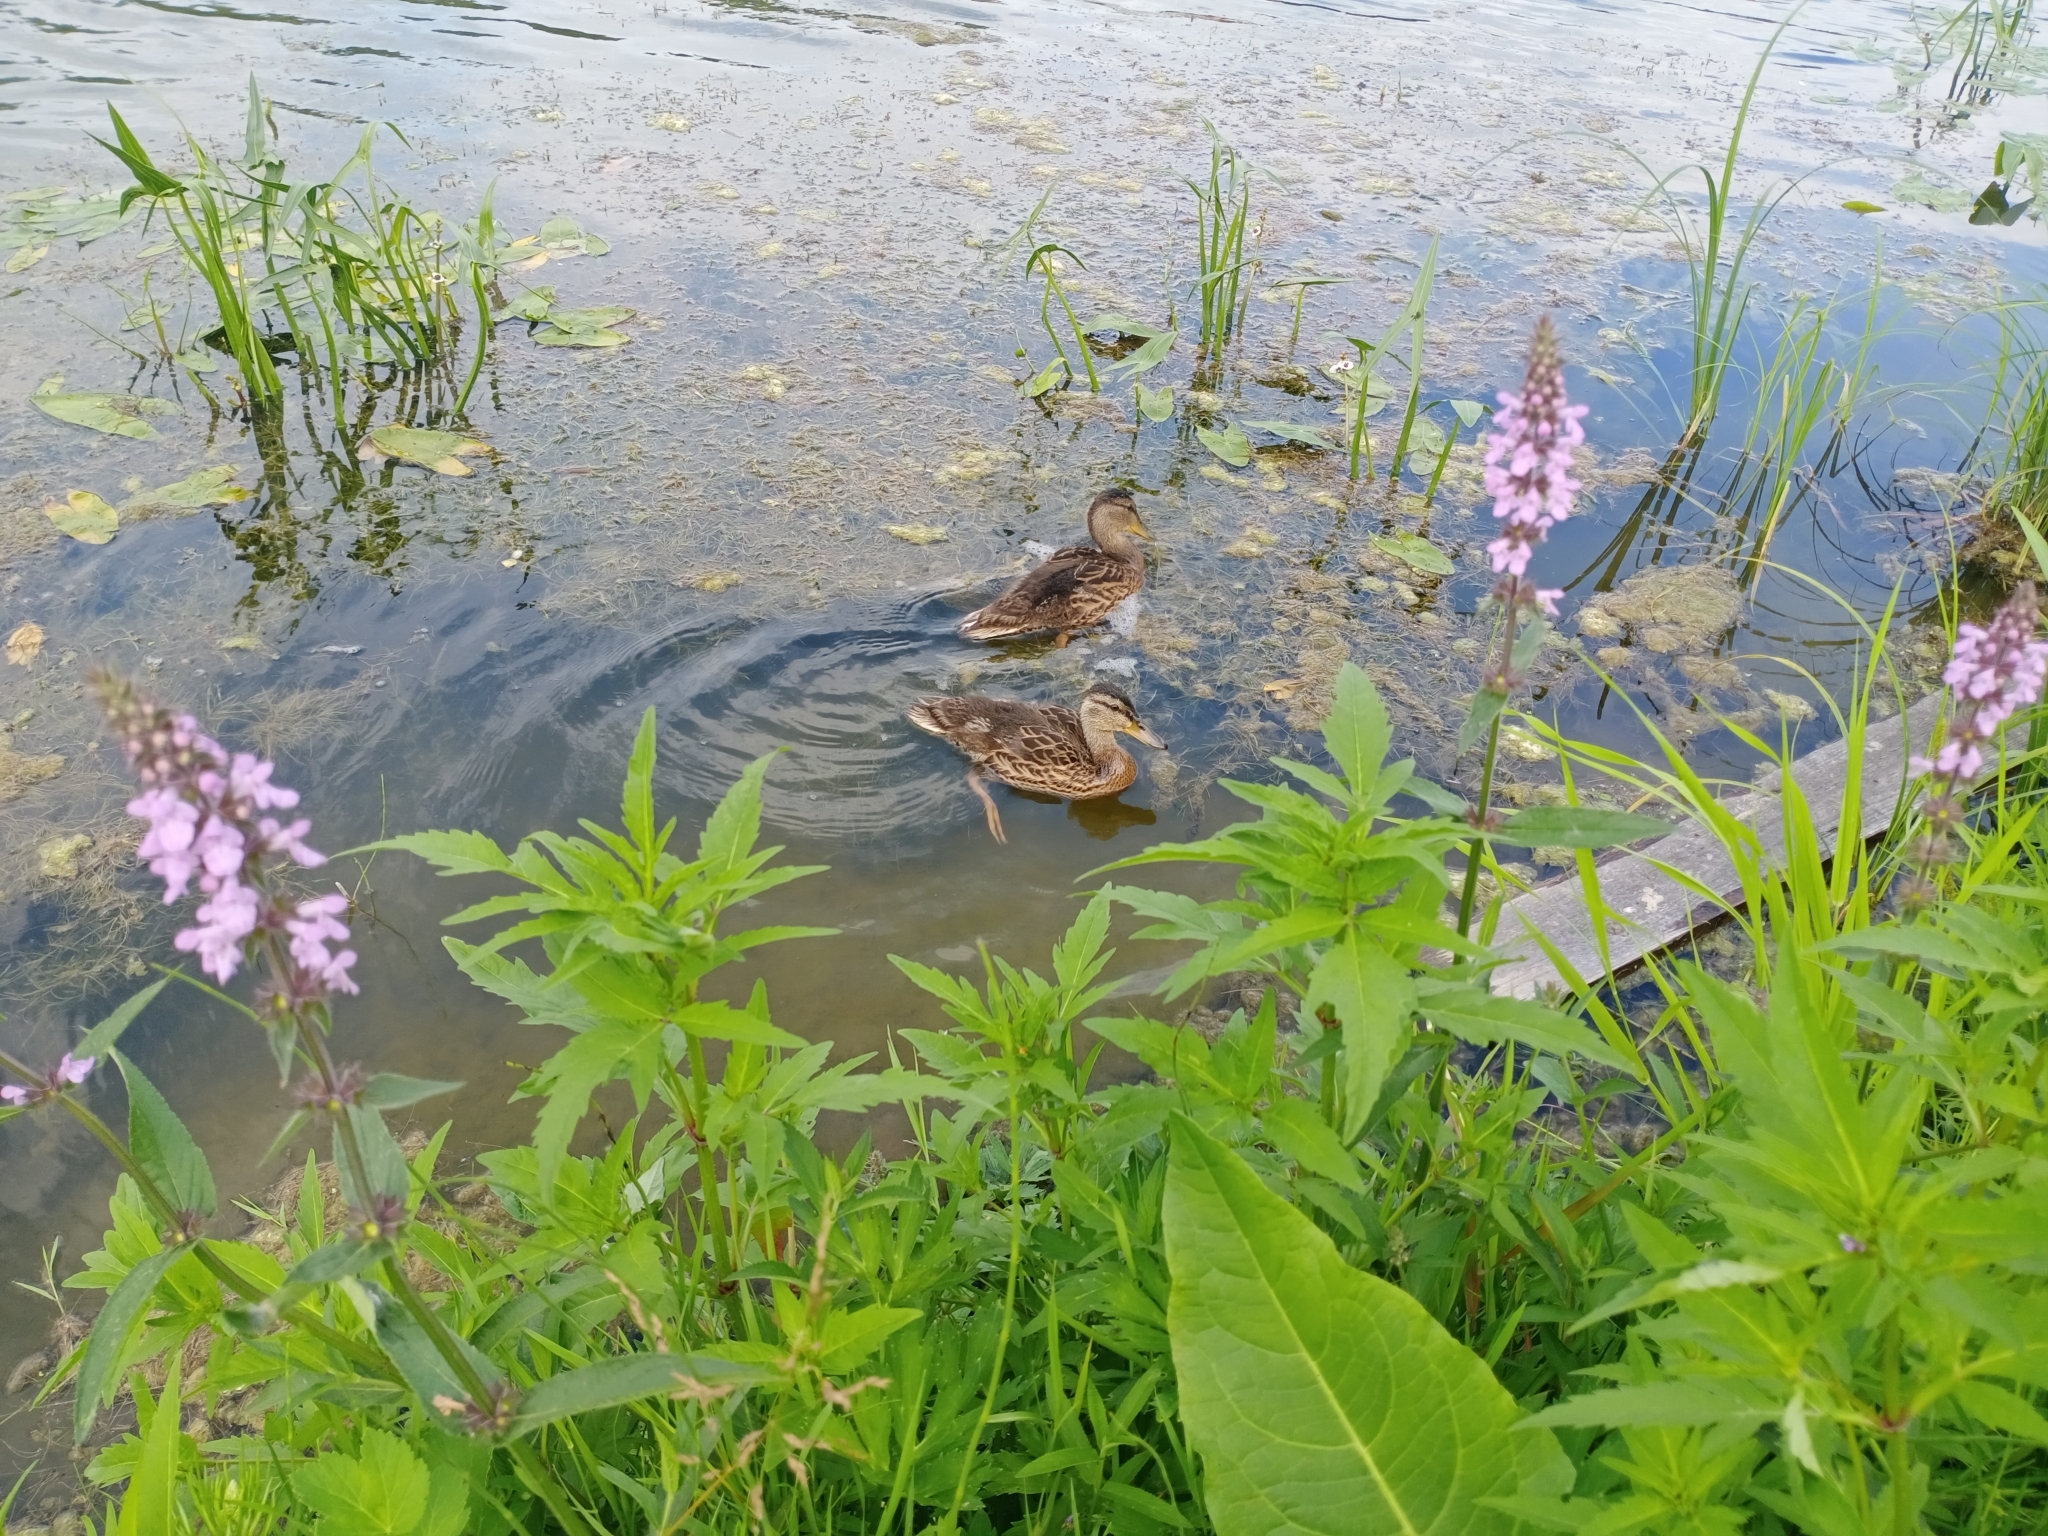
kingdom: Animalia
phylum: Chordata
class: Aves
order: Anseriformes
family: Anatidae
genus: Anas
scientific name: Anas platyrhynchos
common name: Mallard
